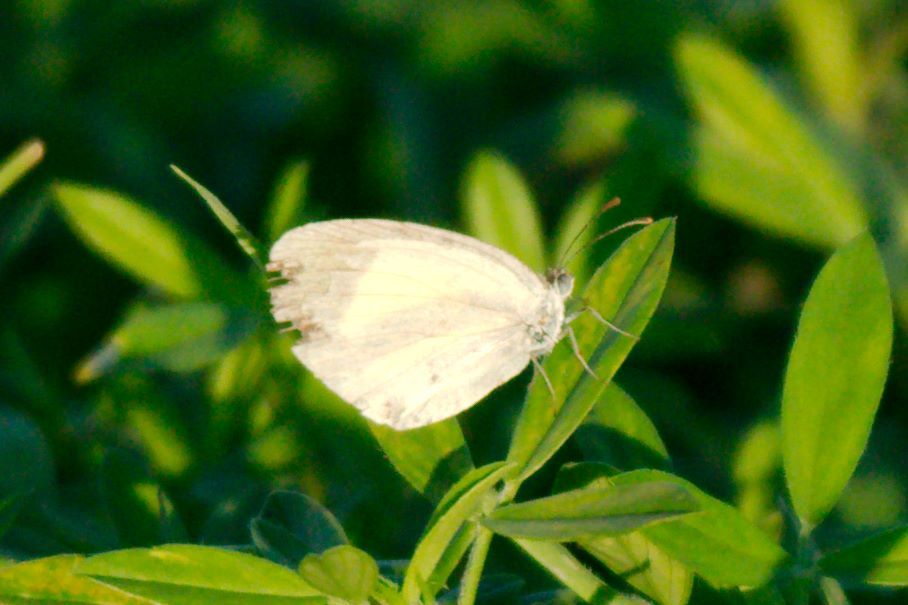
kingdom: Animalia
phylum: Arthropoda
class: Insecta
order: Lepidoptera
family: Pieridae
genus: Eurema
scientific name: Eurema daira
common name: Barred sulphur
